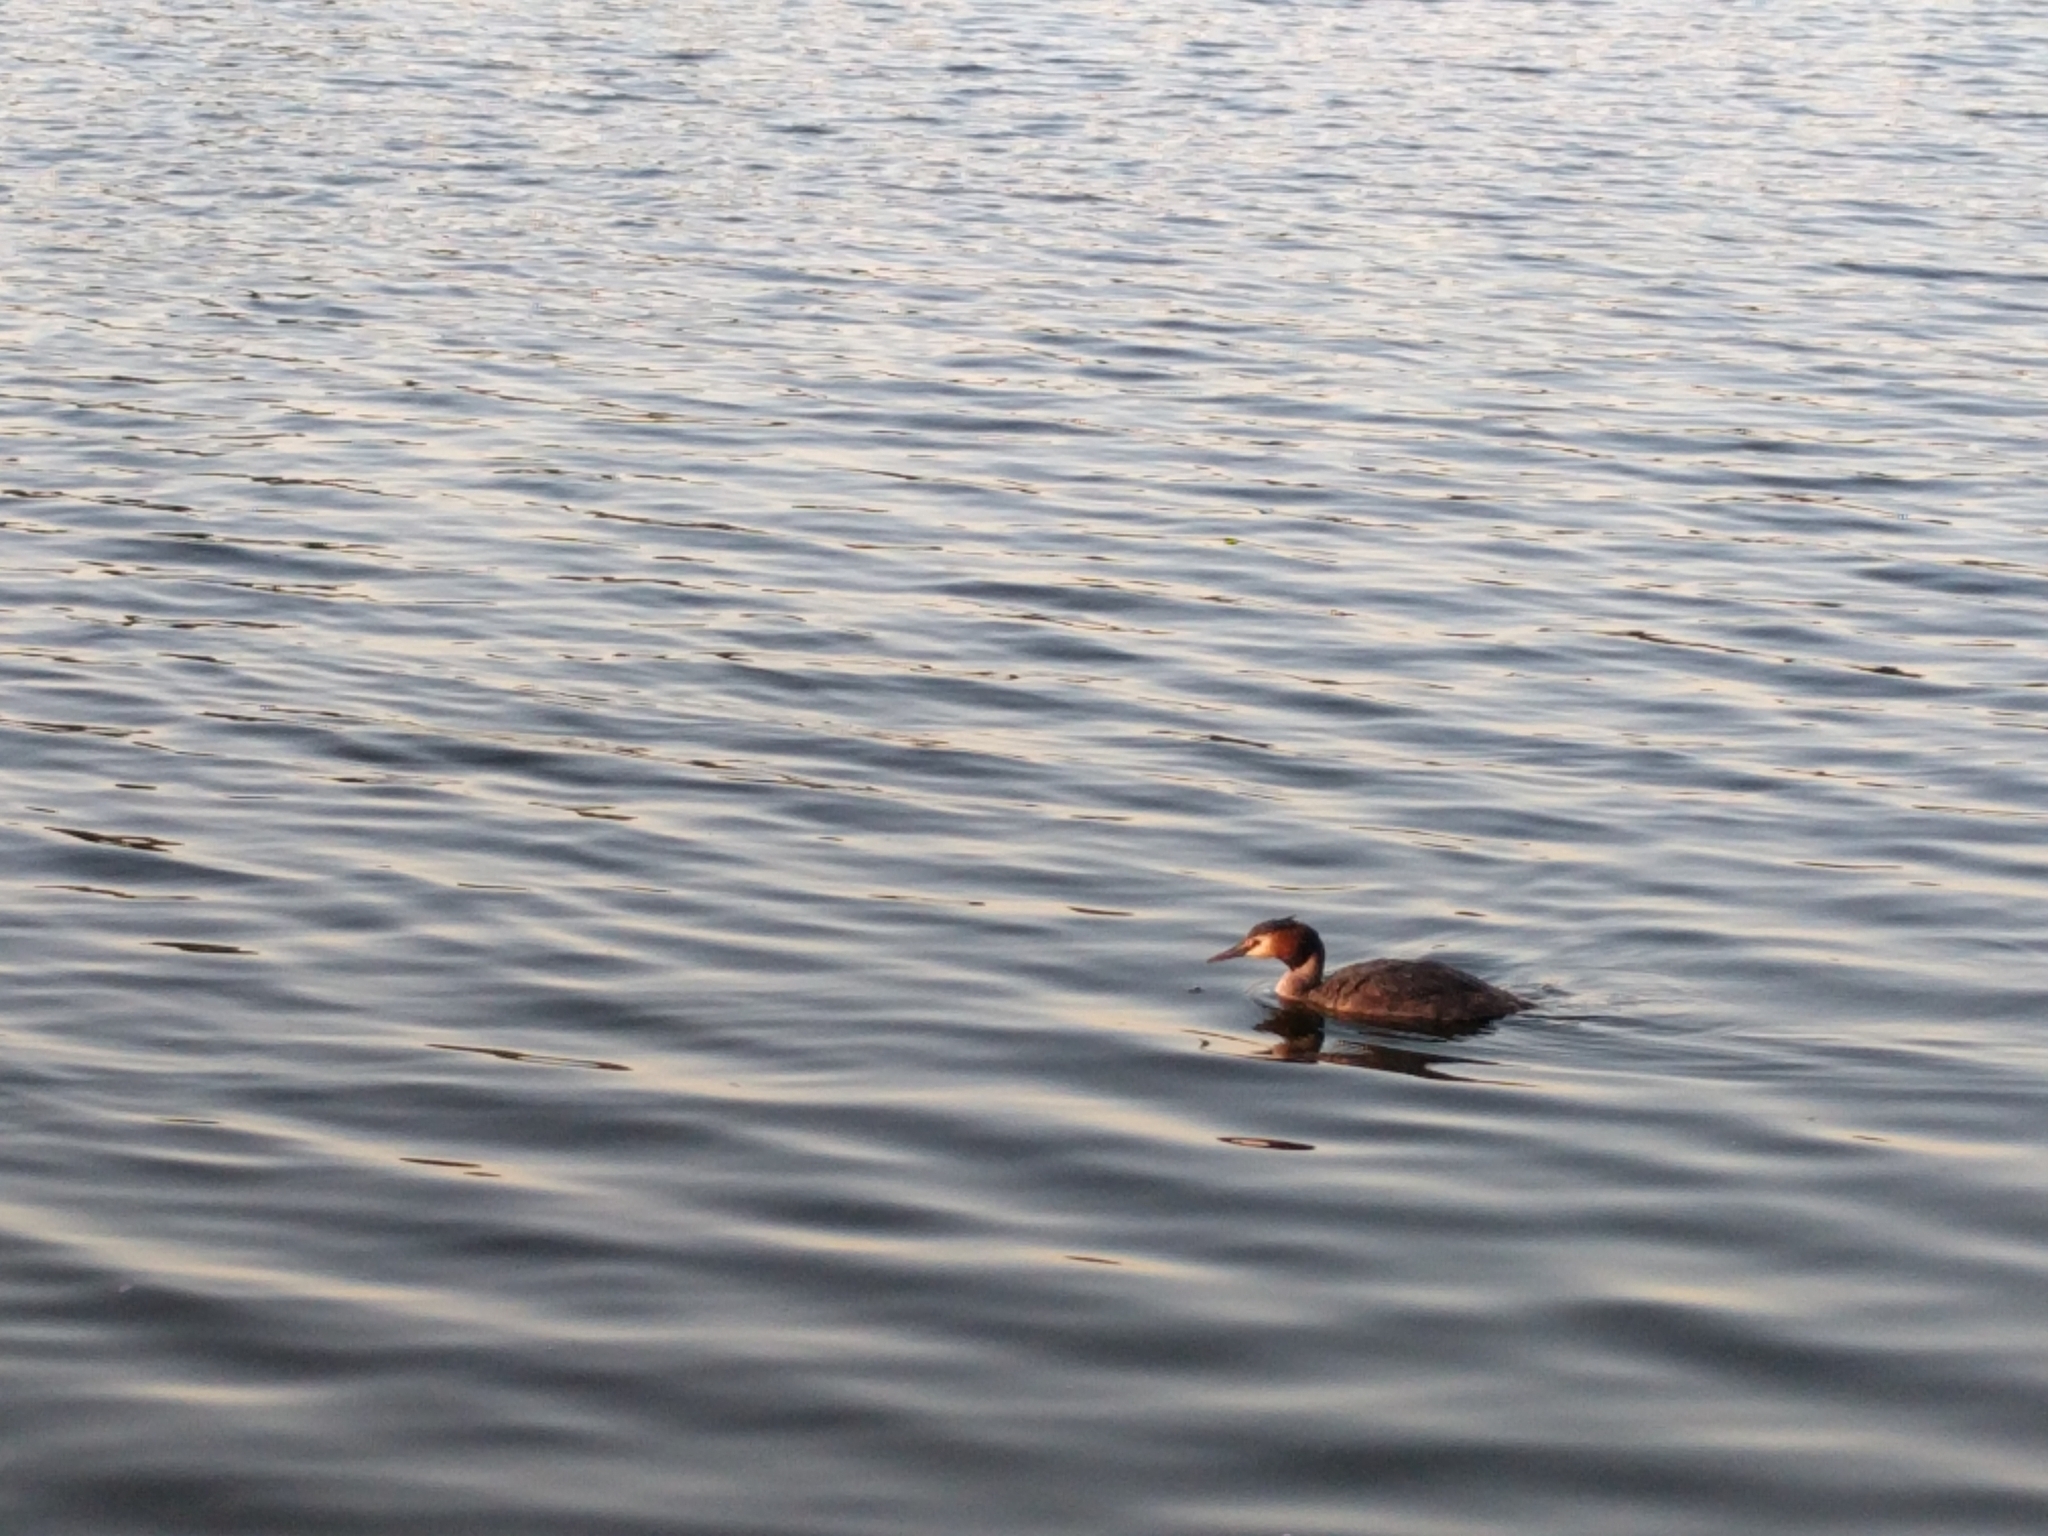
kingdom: Animalia
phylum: Chordata
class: Aves
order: Podicipediformes
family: Podicipedidae
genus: Podiceps
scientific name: Podiceps cristatus
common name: Great crested grebe
